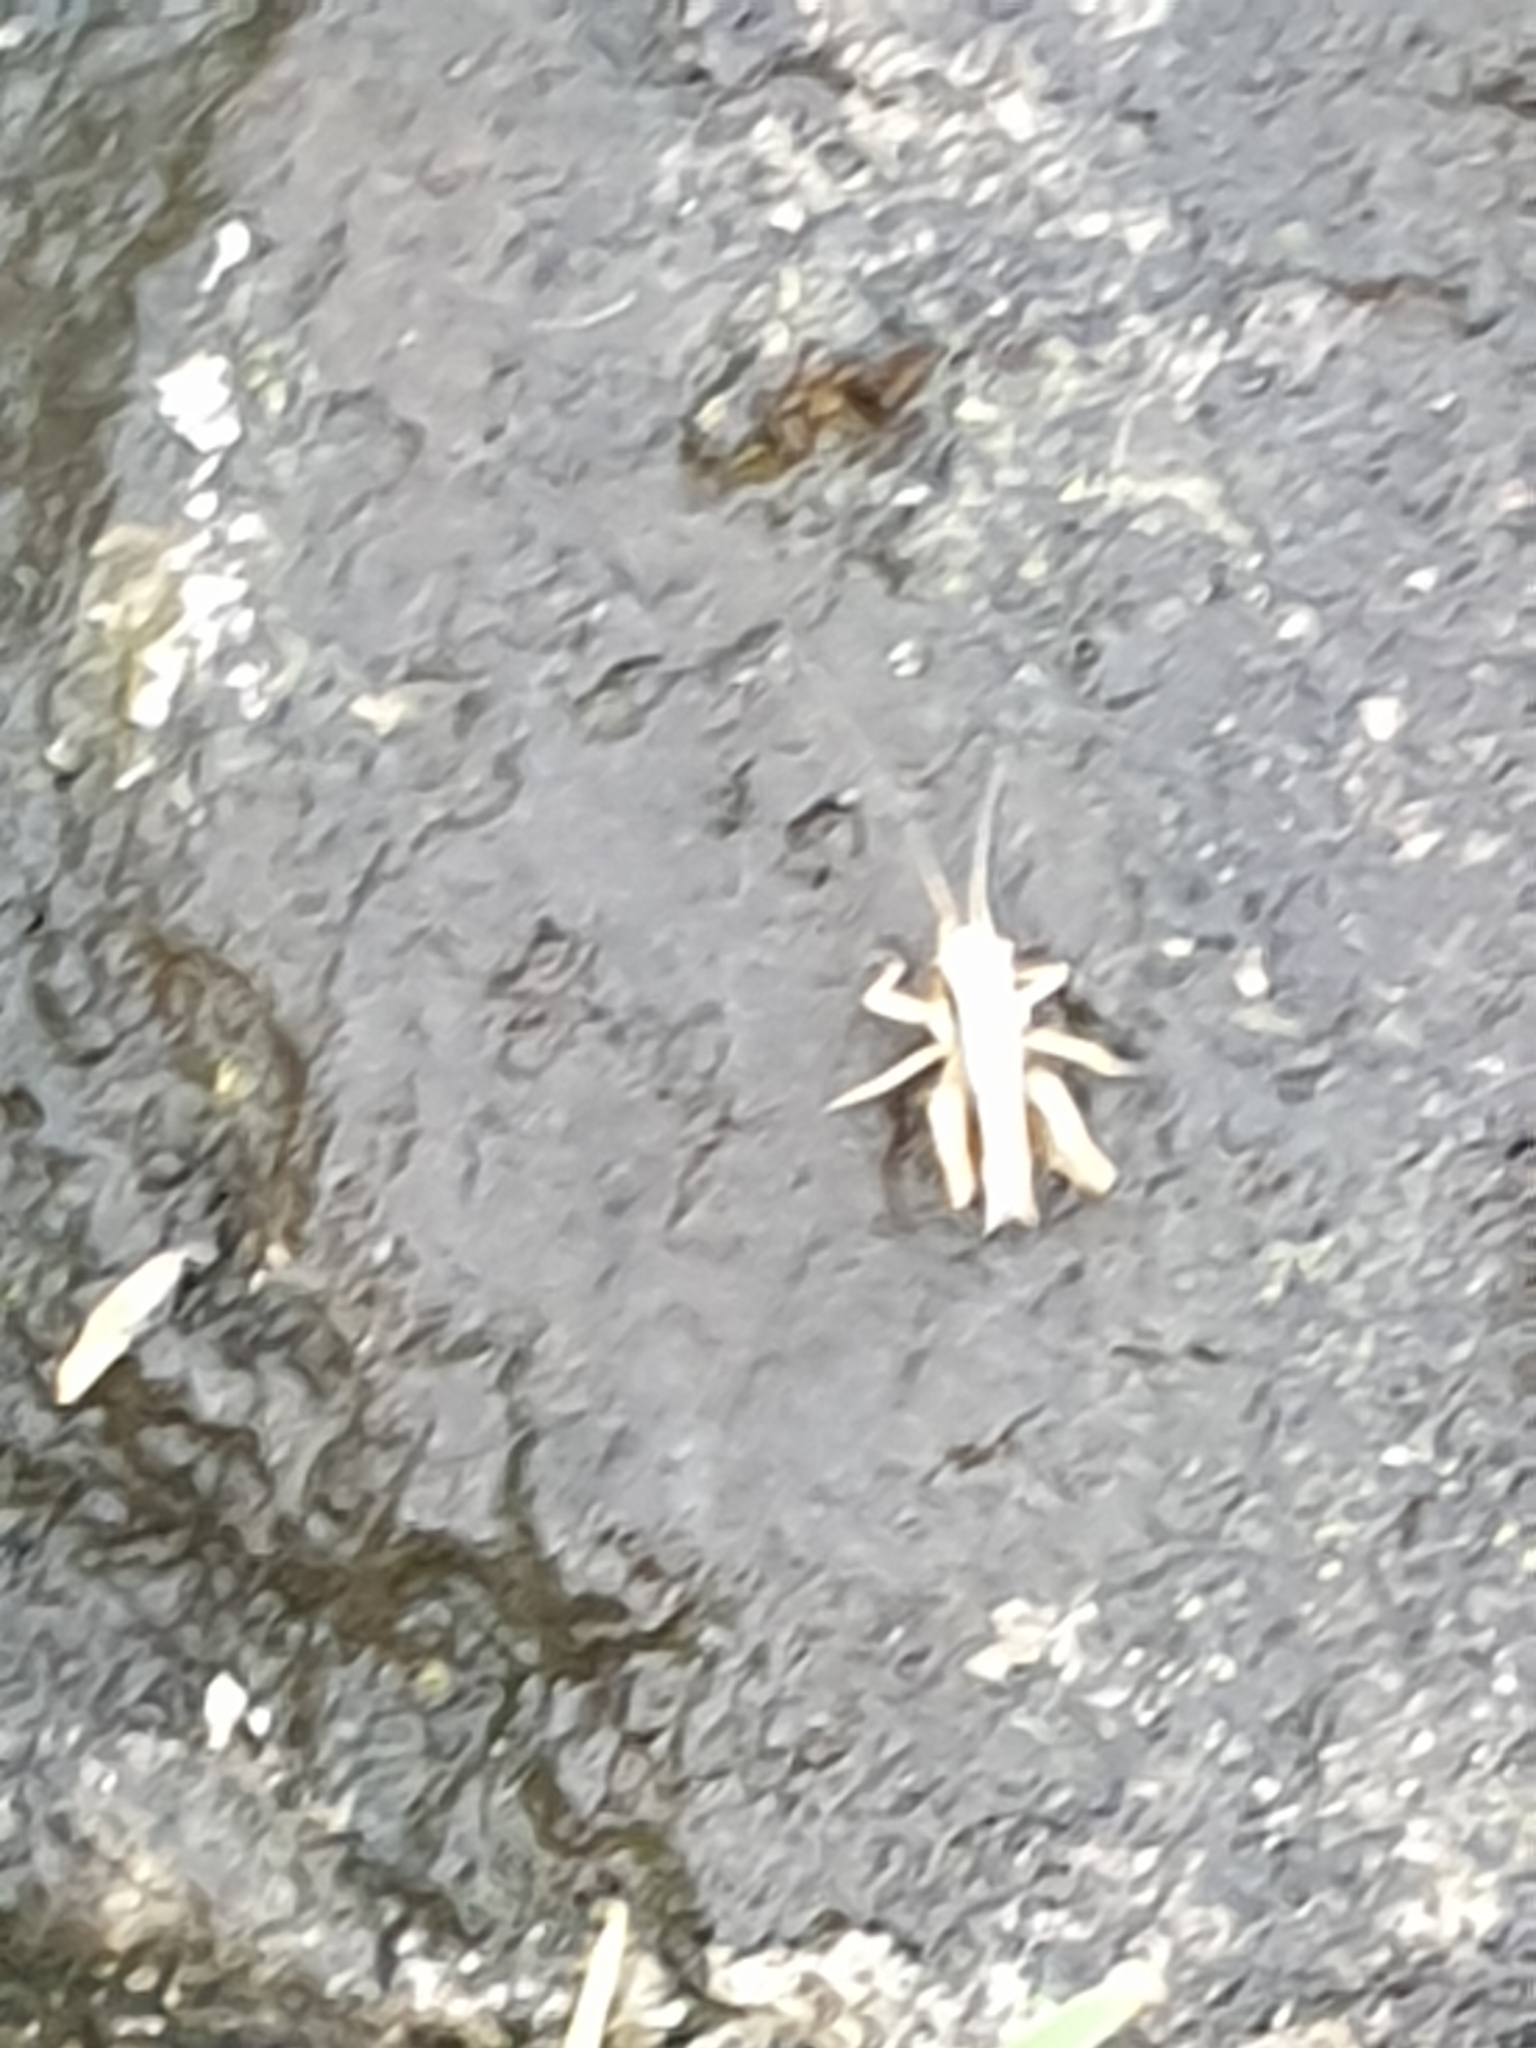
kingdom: Animalia
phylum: Arthropoda
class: Insecta
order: Orthoptera
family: Tettigoniidae
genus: Pholidoptera
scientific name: Pholidoptera griseoaptera
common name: Dark bush-cricket
